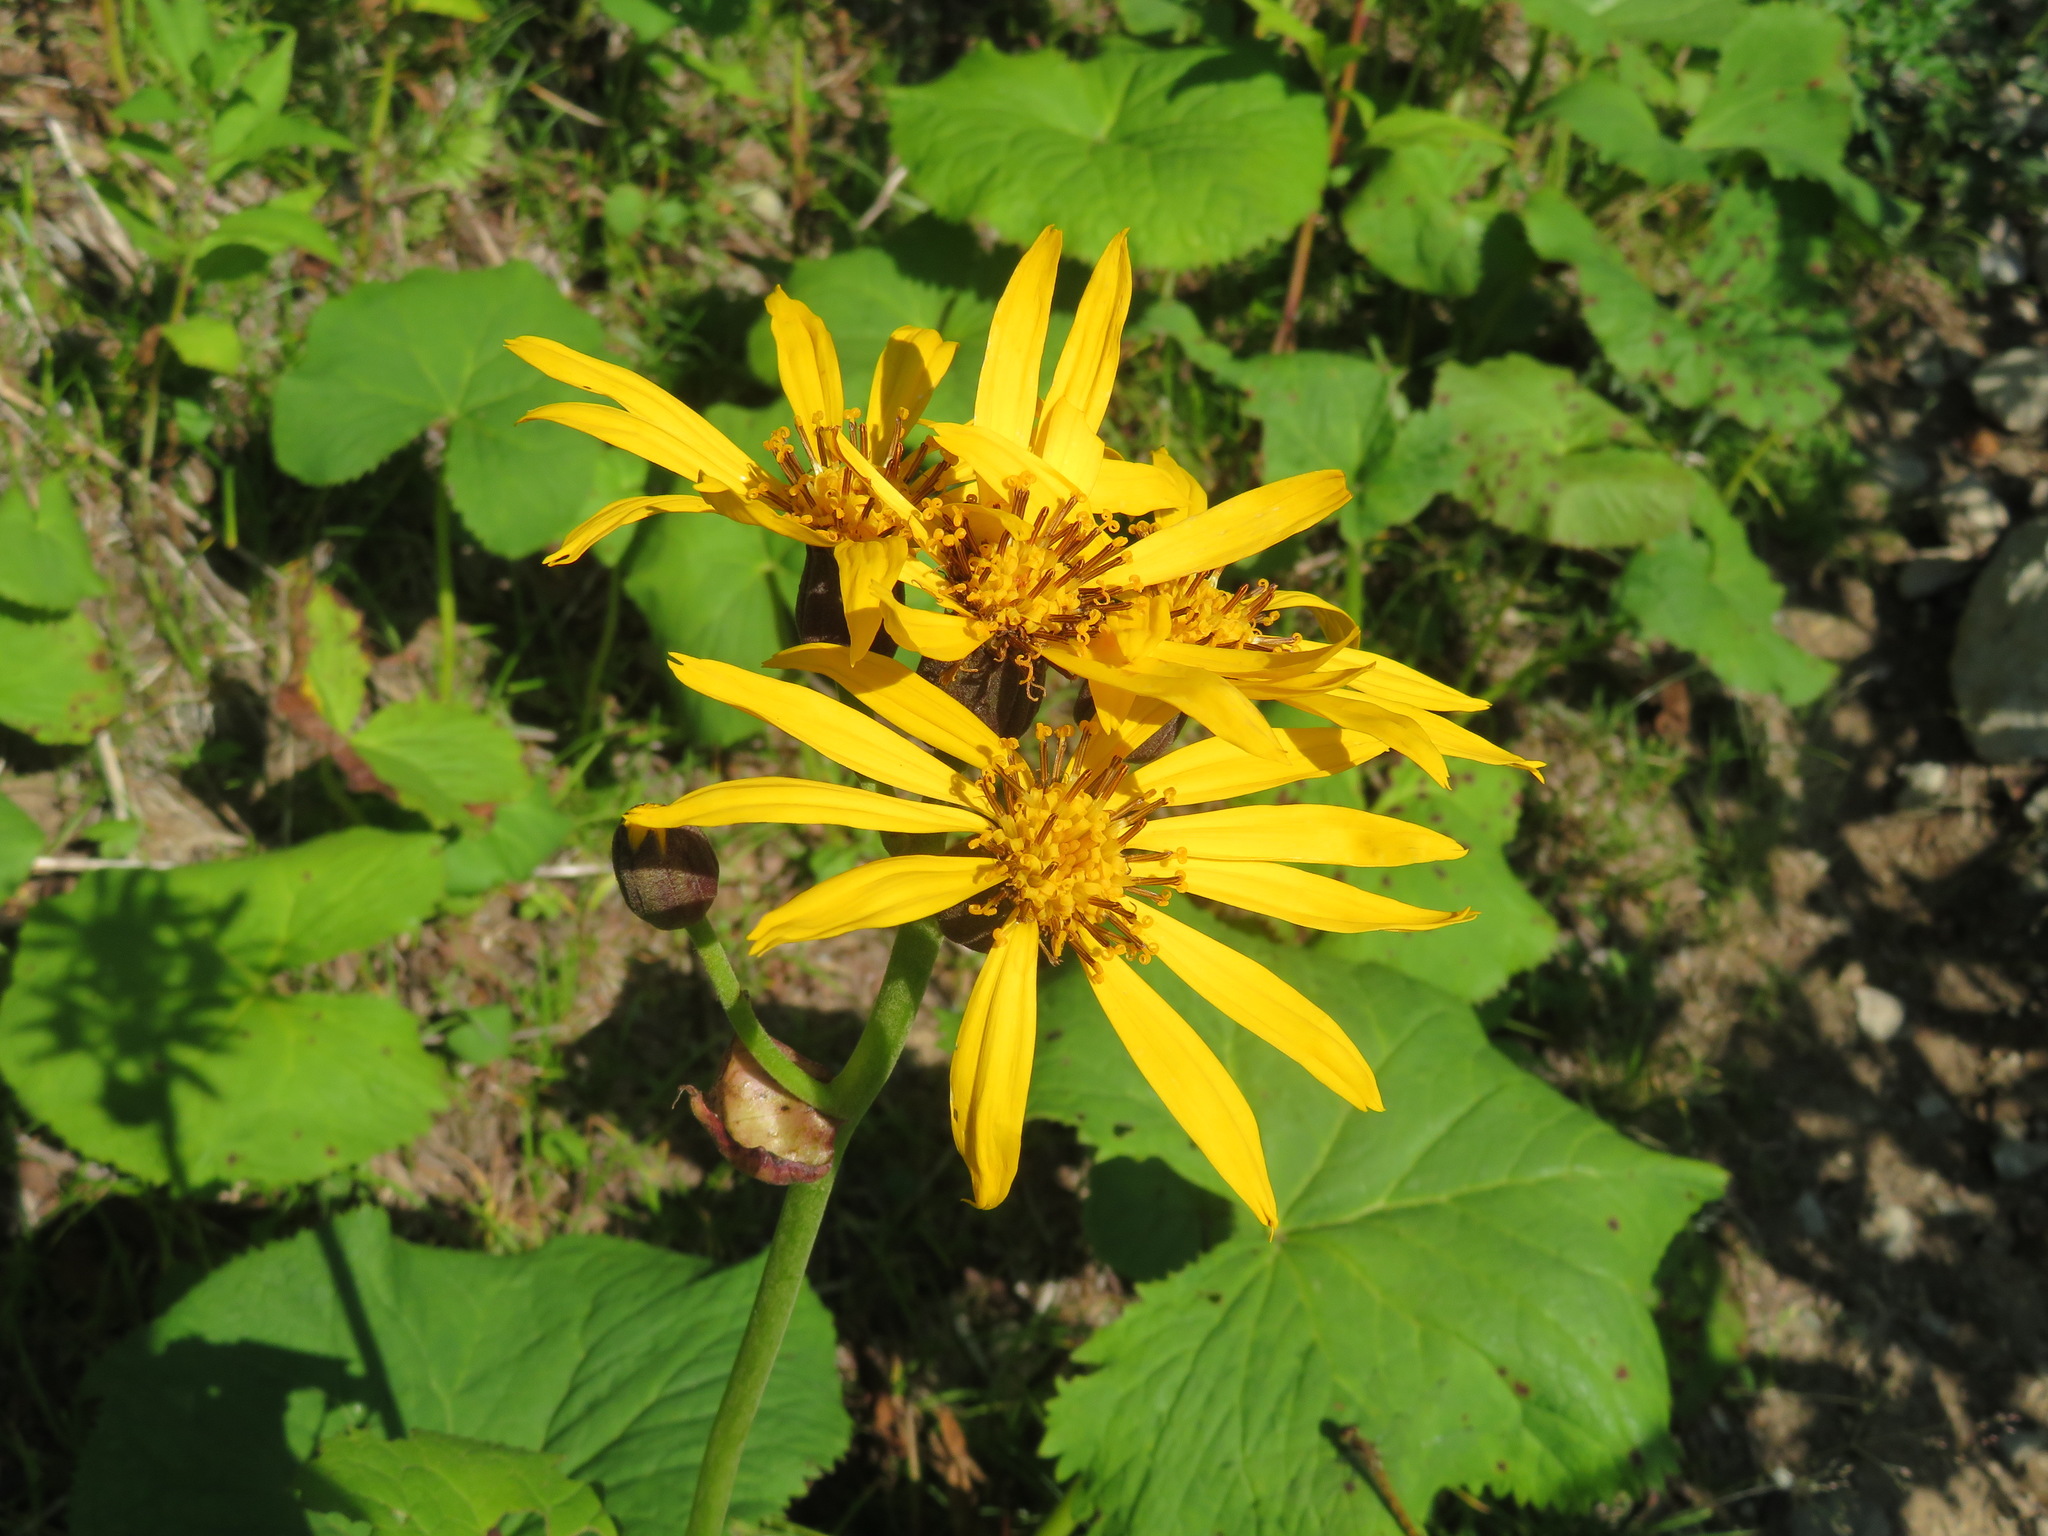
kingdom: Plantae
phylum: Tracheophyta
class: Magnoliopsida
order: Asterales
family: Asteraceae
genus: Ligularia
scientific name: Ligularia dentata
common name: Leopardplant
